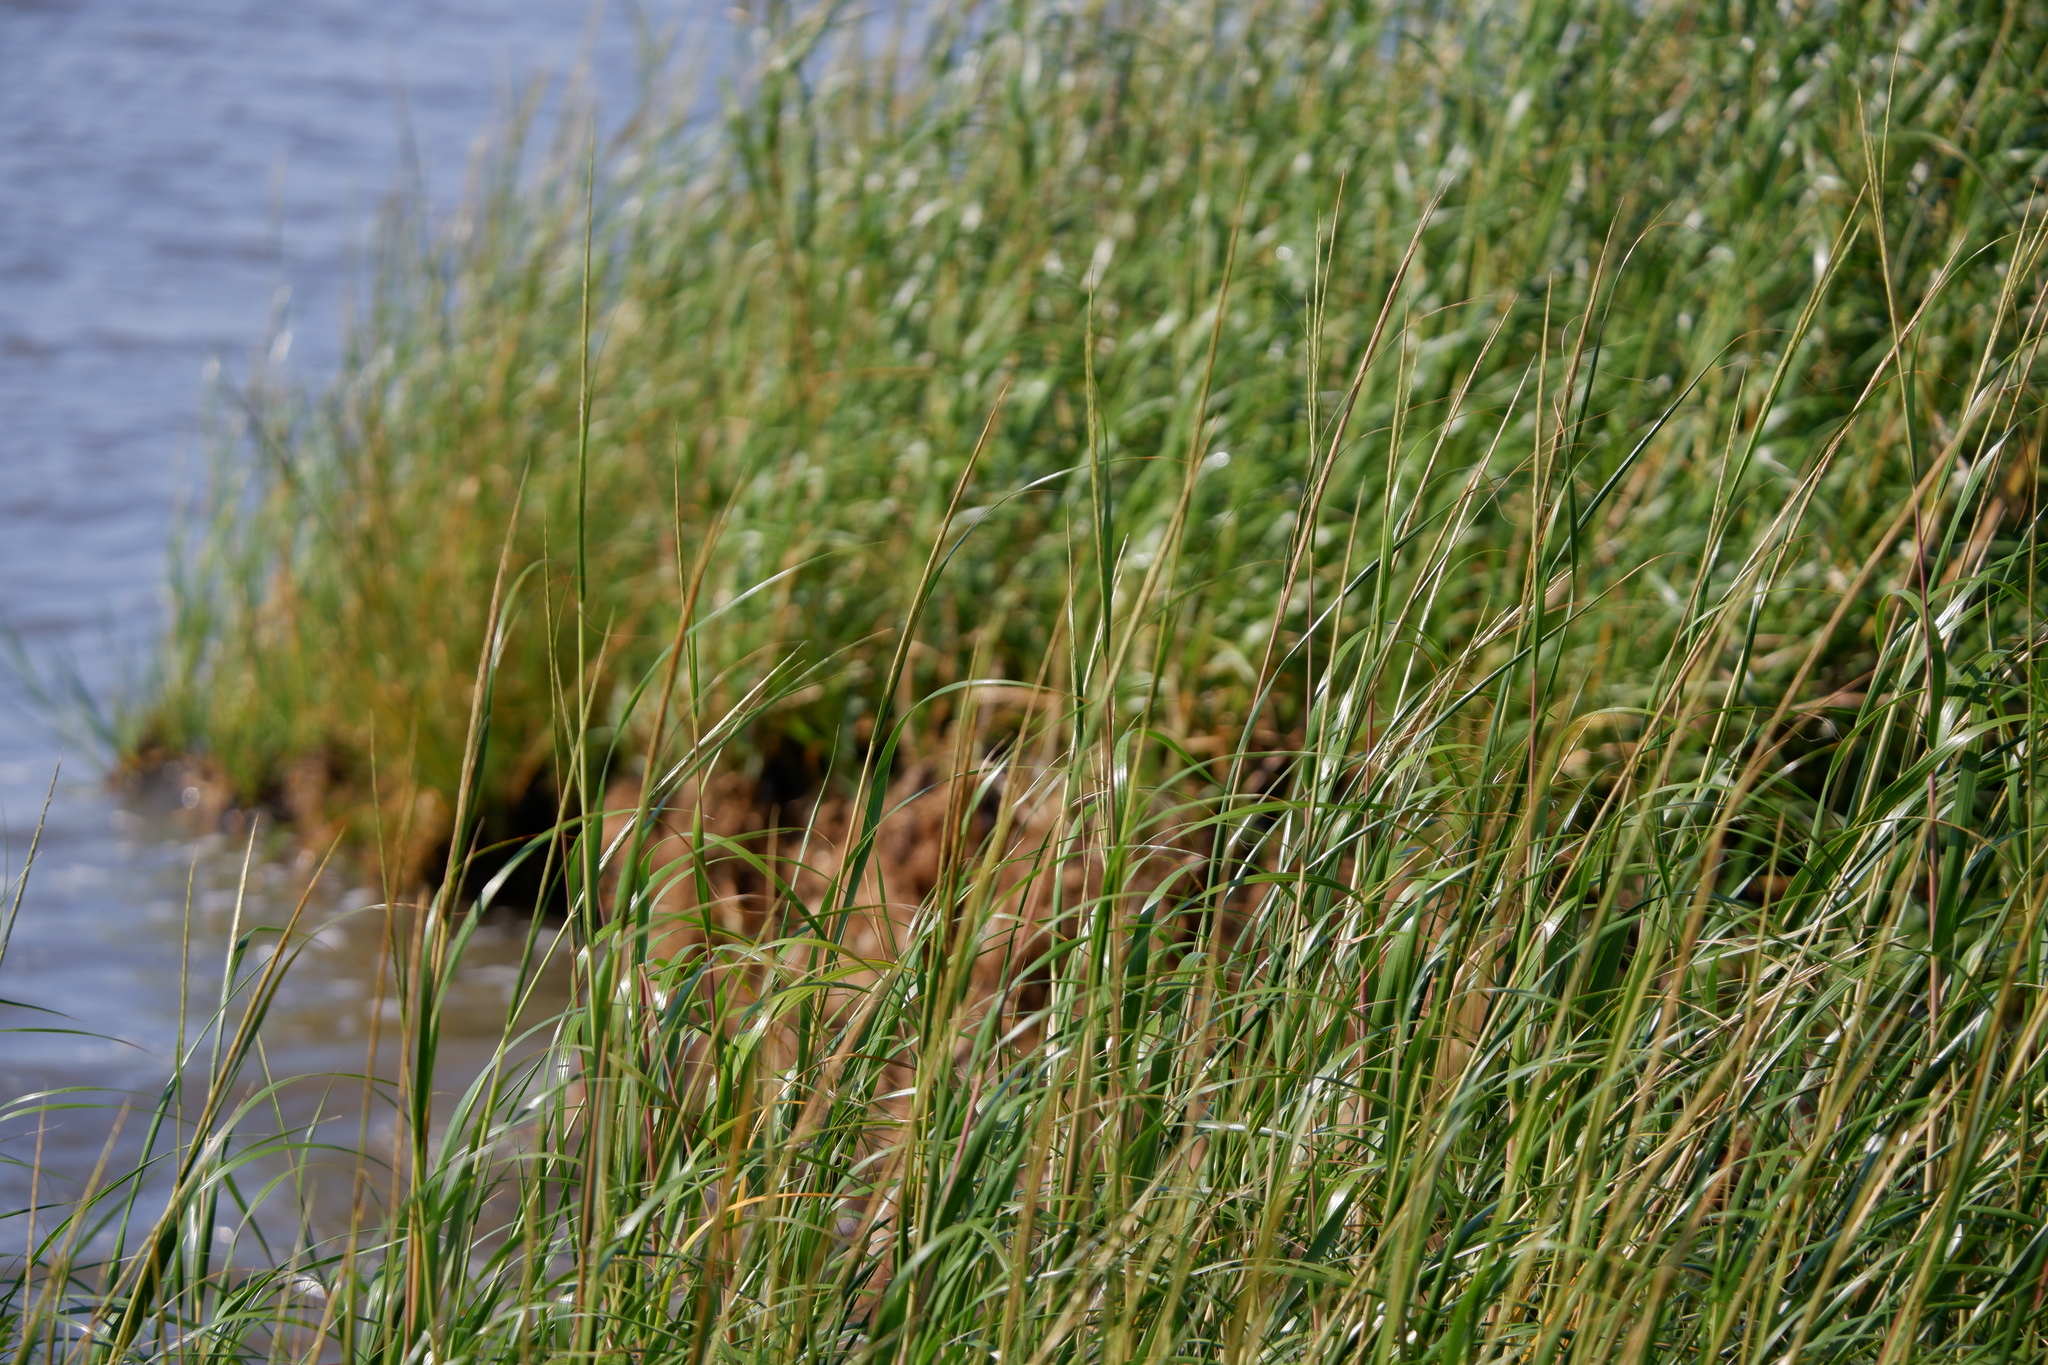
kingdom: Plantae
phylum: Tracheophyta
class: Liliopsida
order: Poales
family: Poaceae
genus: Sporobolus
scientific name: Sporobolus alterniflorus
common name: Atlantic cordgrass
